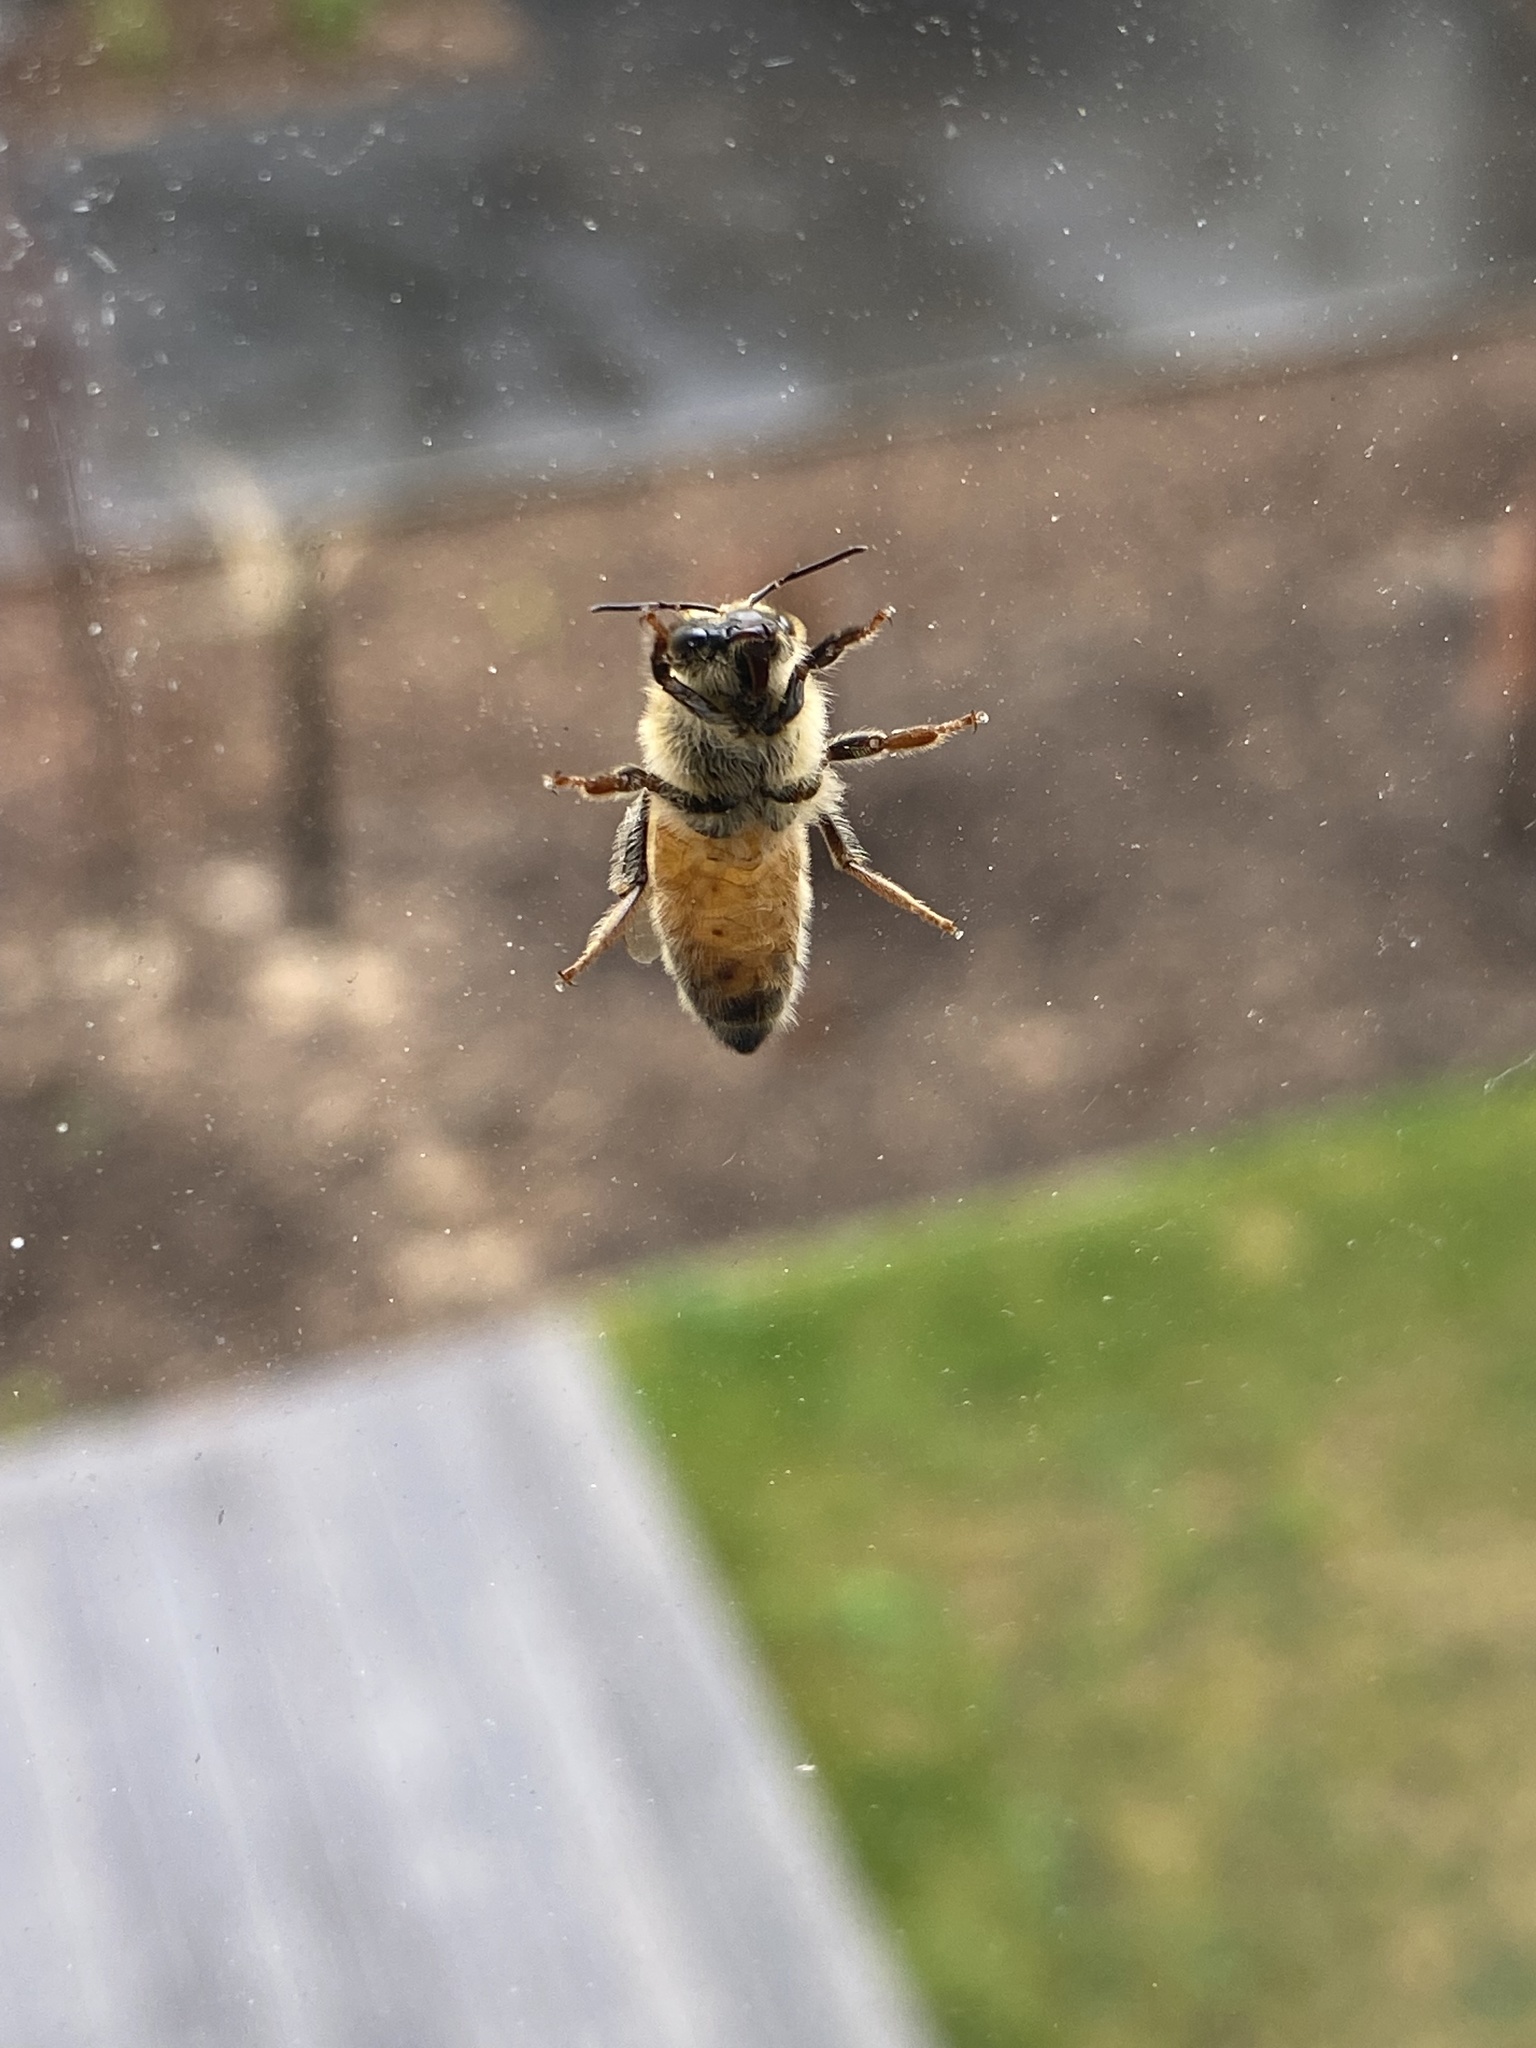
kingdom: Animalia
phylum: Arthropoda
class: Insecta
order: Hymenoptera
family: Apidae
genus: Apis
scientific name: Apis mellifera
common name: Honey bee
